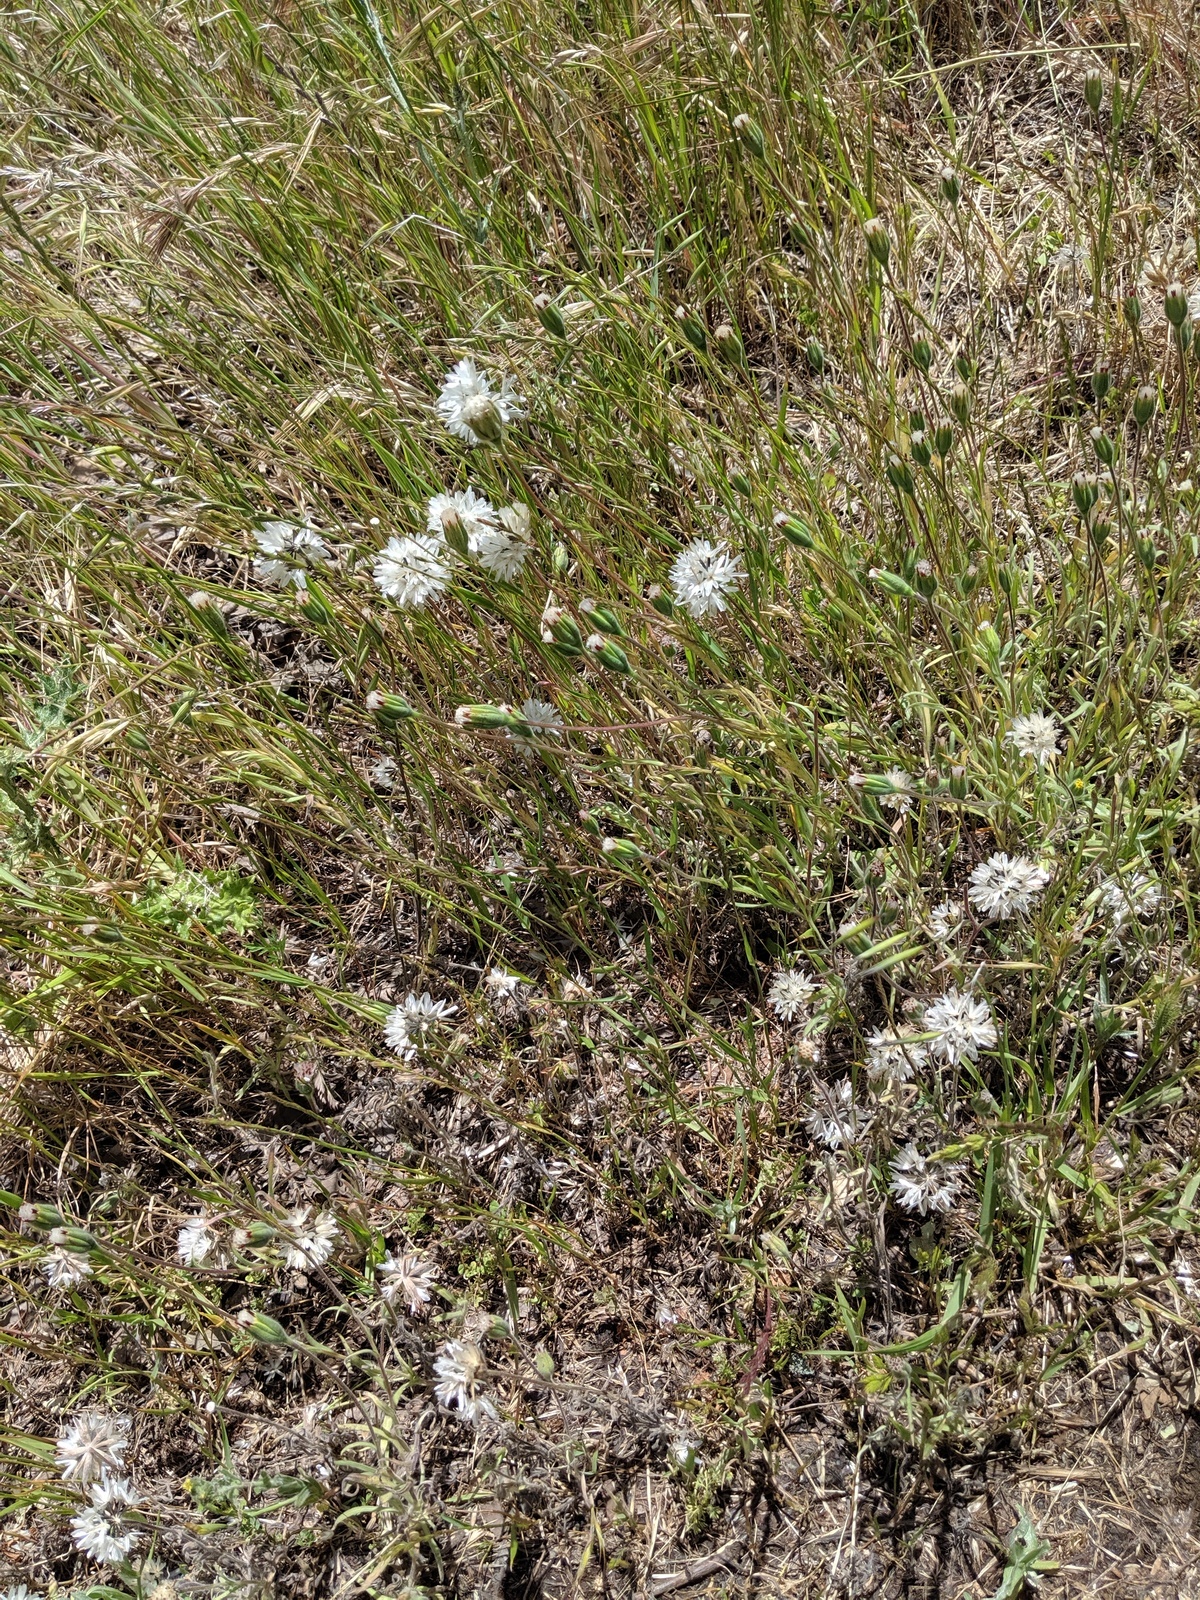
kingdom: Plantae
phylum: Tracheophyta
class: Magnoliopsida
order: Asterales
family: Asteraceae
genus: Achyrachaena
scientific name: Achyrachaena mollis
